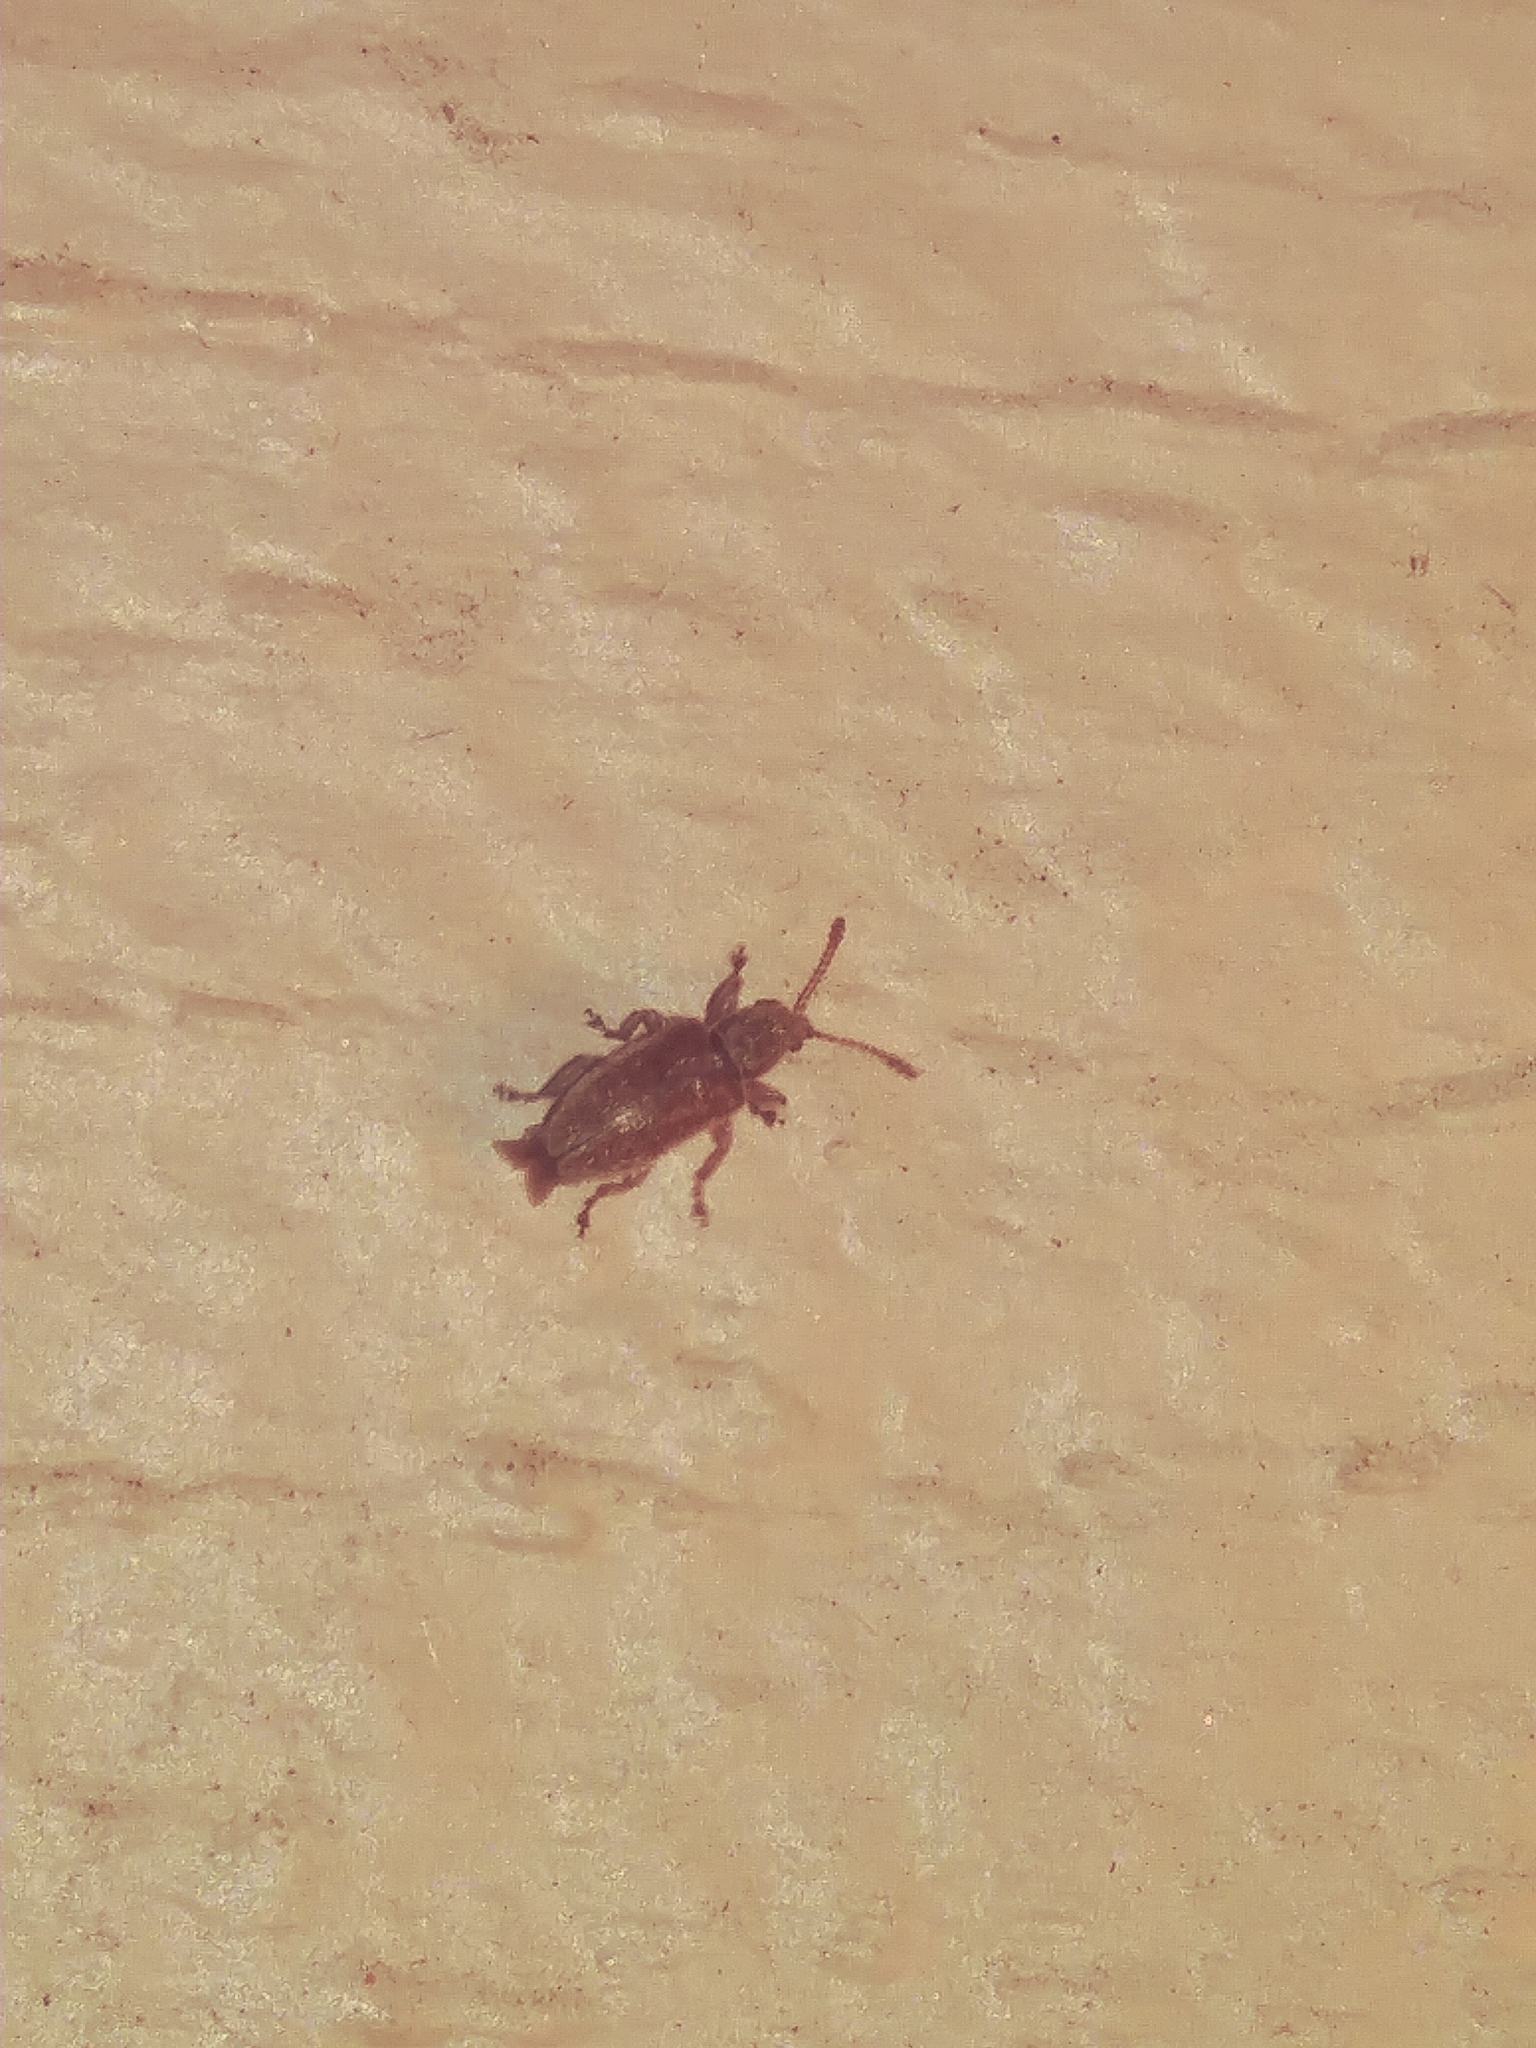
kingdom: Animalia
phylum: Arthropoda
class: Insecta
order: Coleoptera
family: Nemonychidae
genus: Cimberis
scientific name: Cimberis elongata
